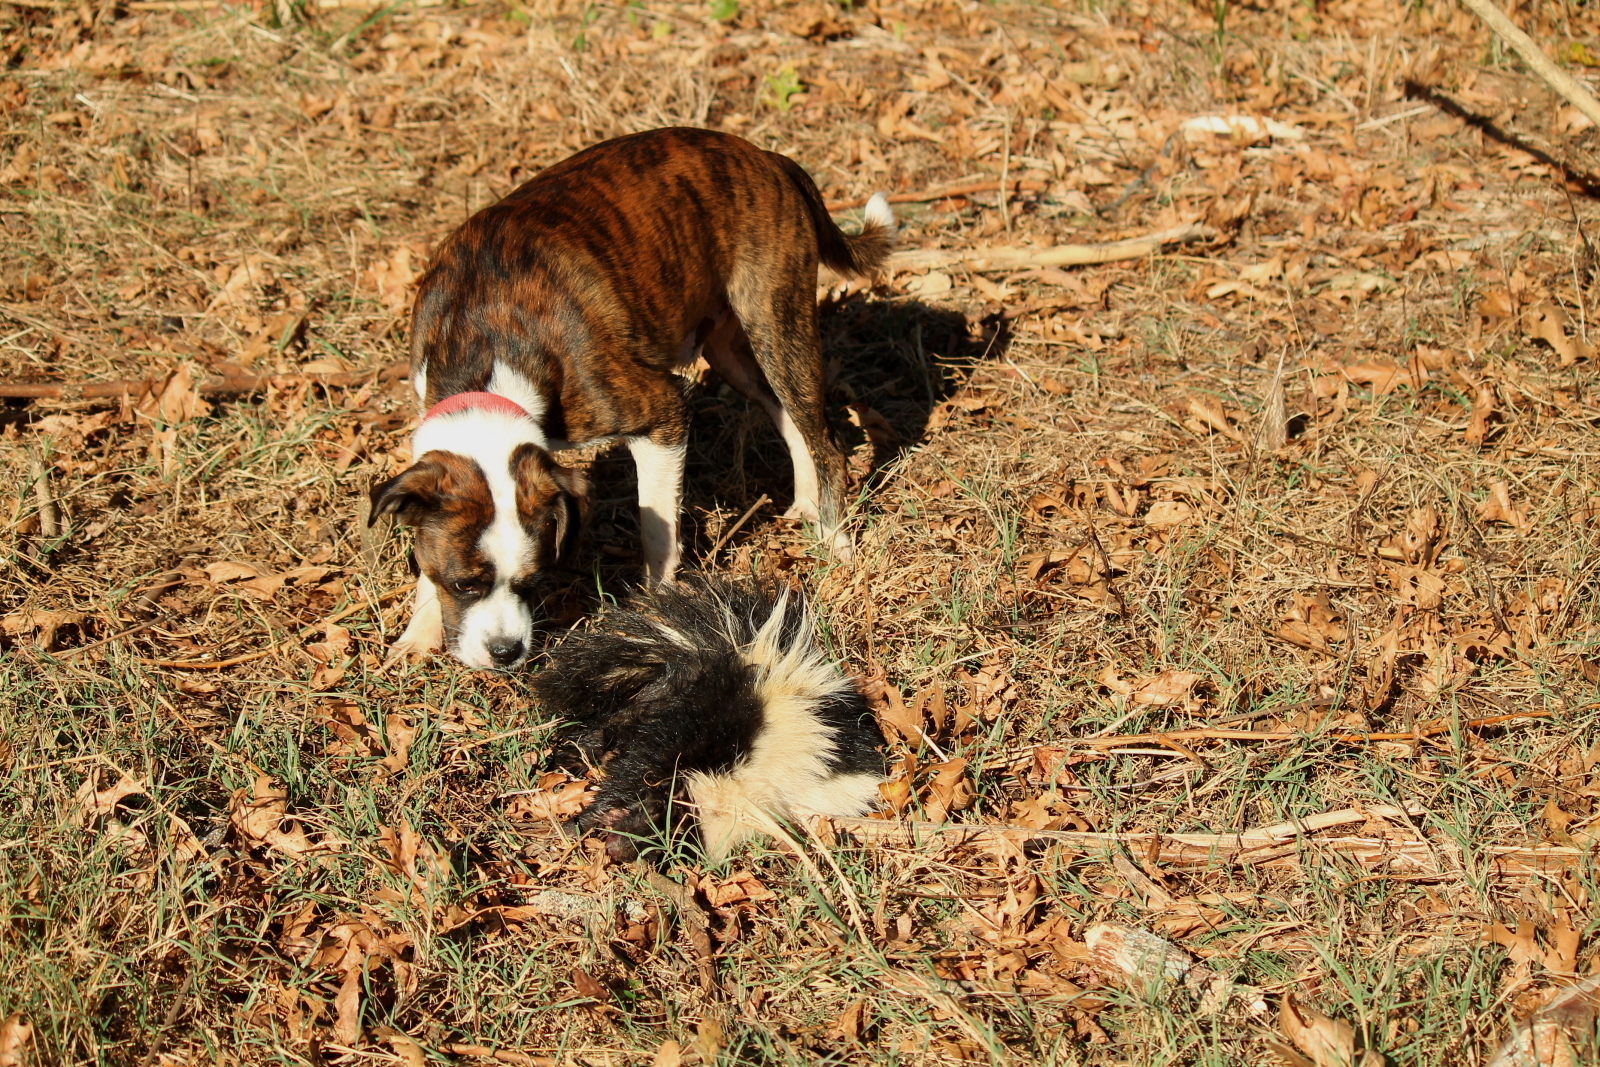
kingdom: Animalia
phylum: Chordata
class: Mammalia
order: Carnivora
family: Mephitidae
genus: Mephitis
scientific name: Mephitis mephitis
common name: Striped skunk
